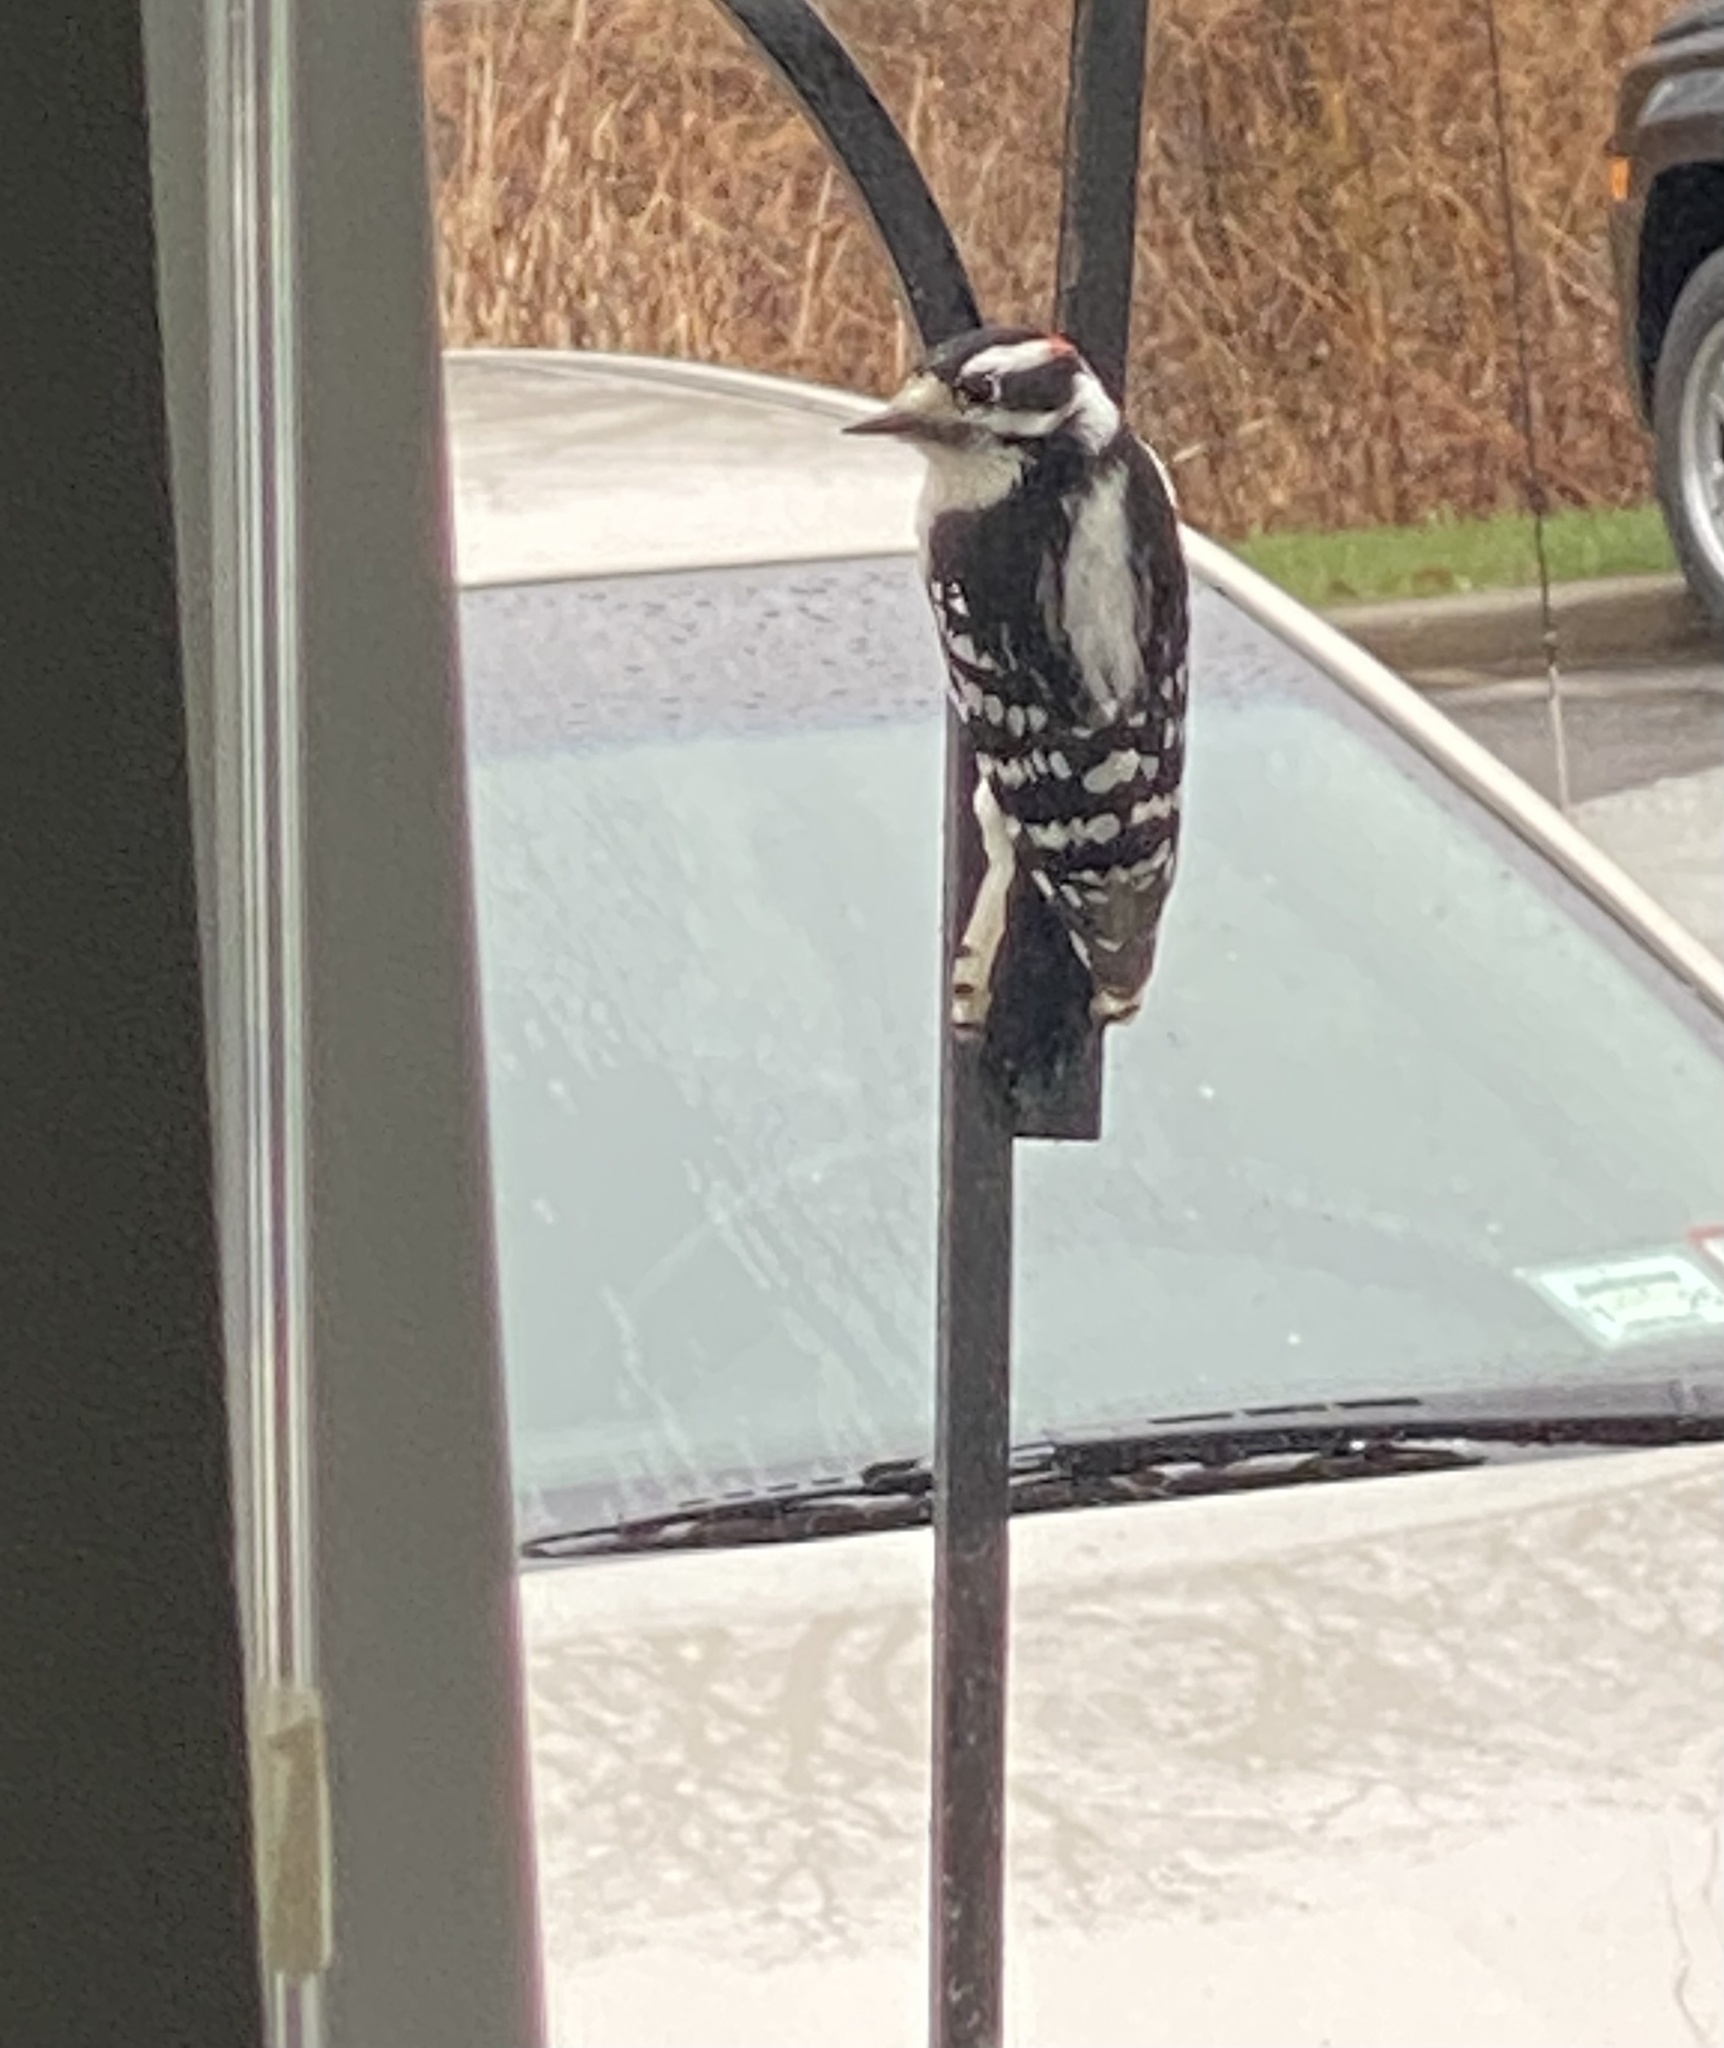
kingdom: Animalia
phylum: Chordata
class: Aves
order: Piciformes
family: Picidae
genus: Dryobates
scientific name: Dryobates pubescens
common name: Downy woodpecker
